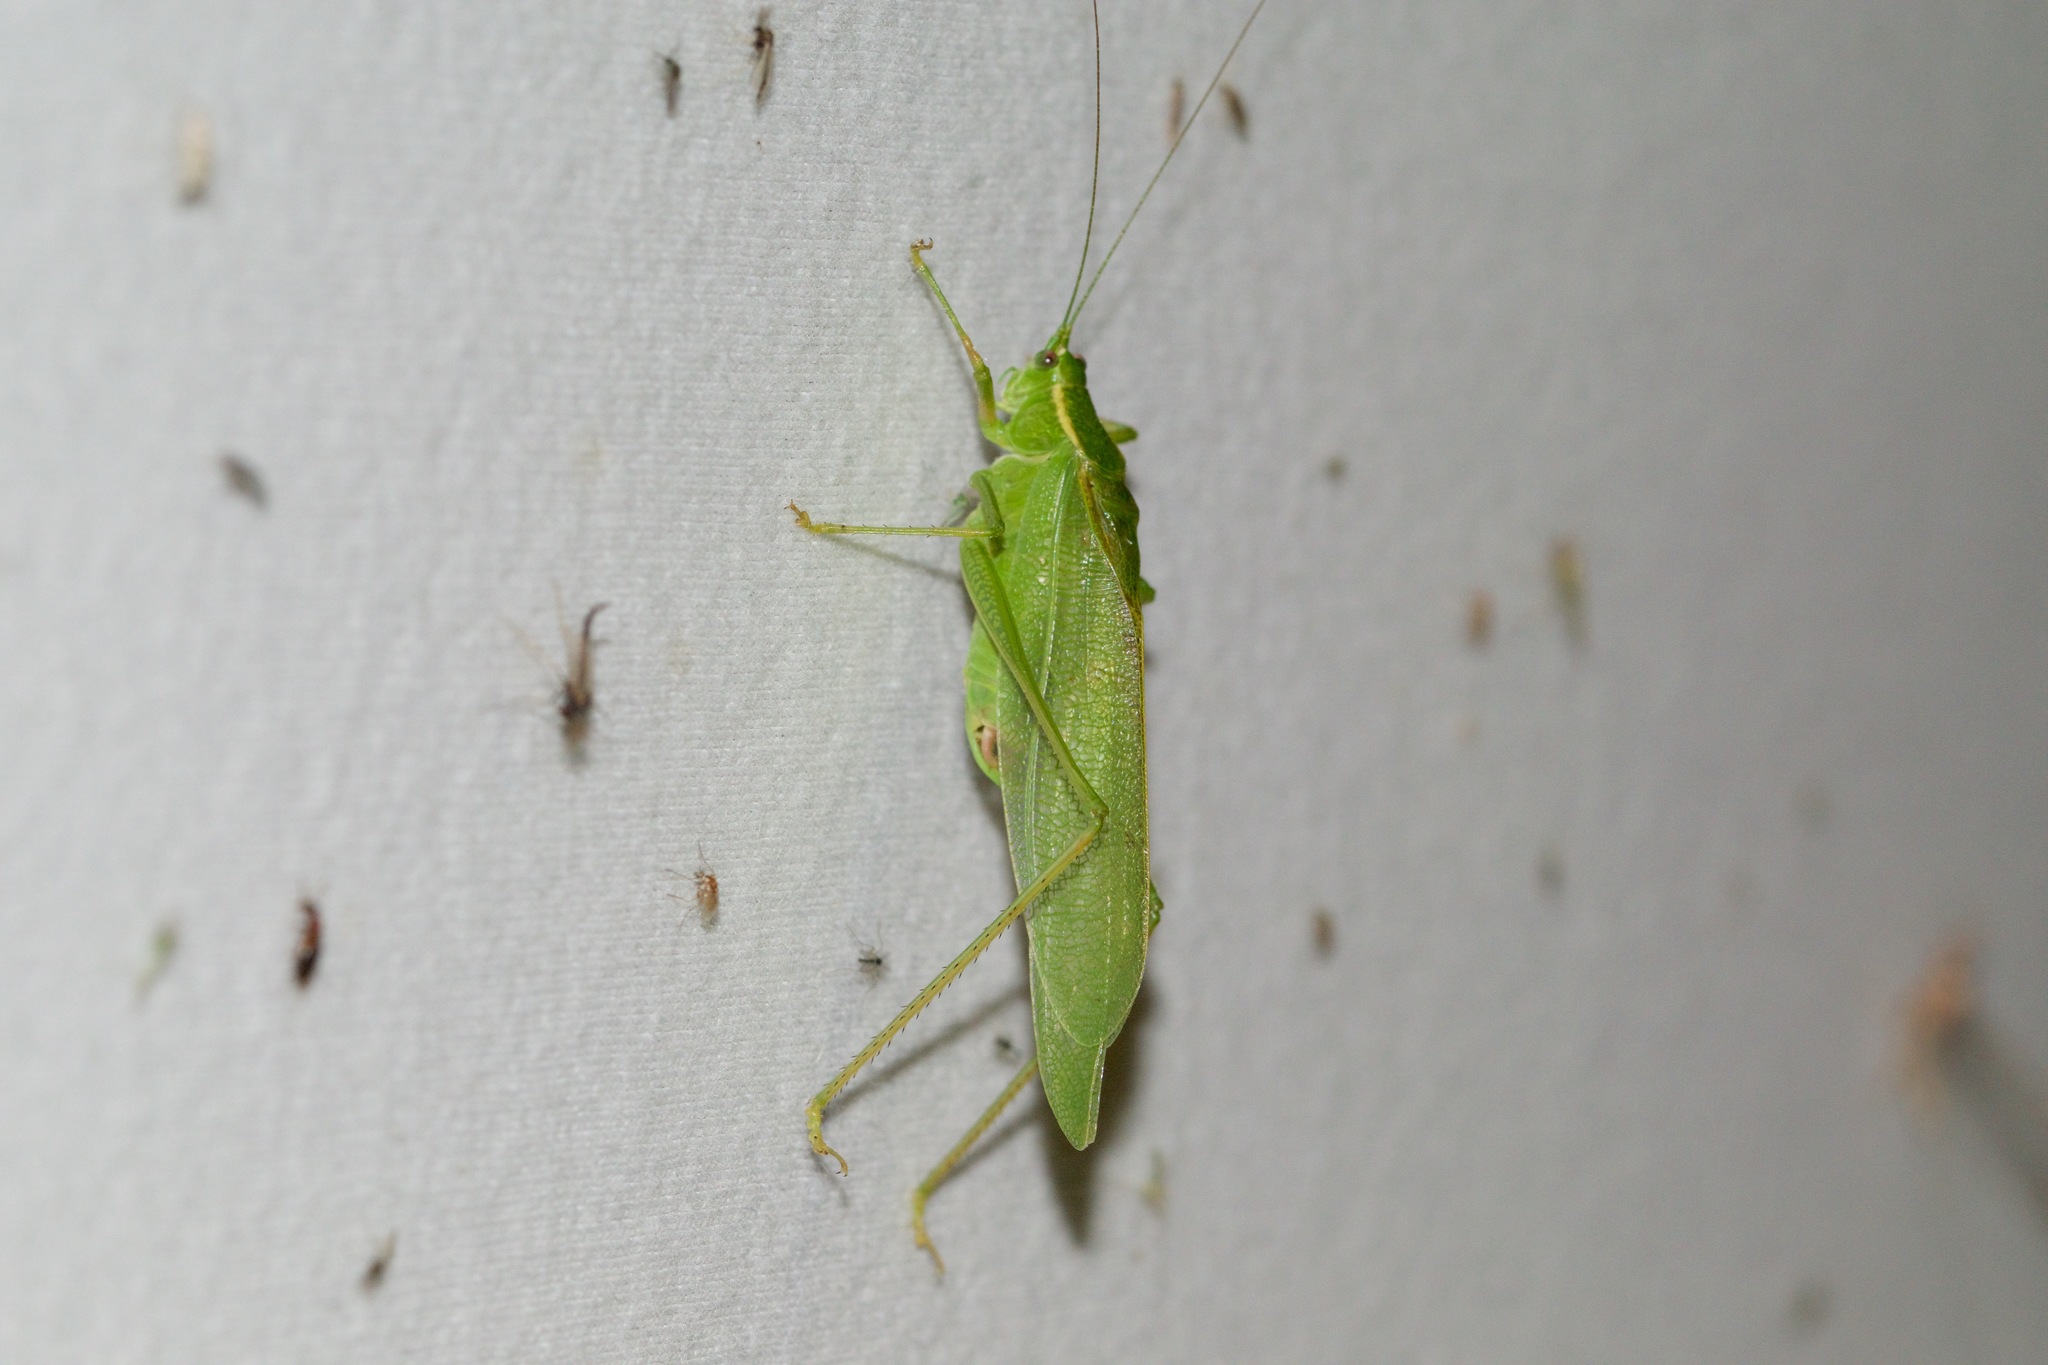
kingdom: Animalia
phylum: Arthropoda
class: Insecta
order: Orthoptera
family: Tettigoniidae
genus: Scudderia
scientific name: Scudderia septentrionalis
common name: Northern bush-katydid
